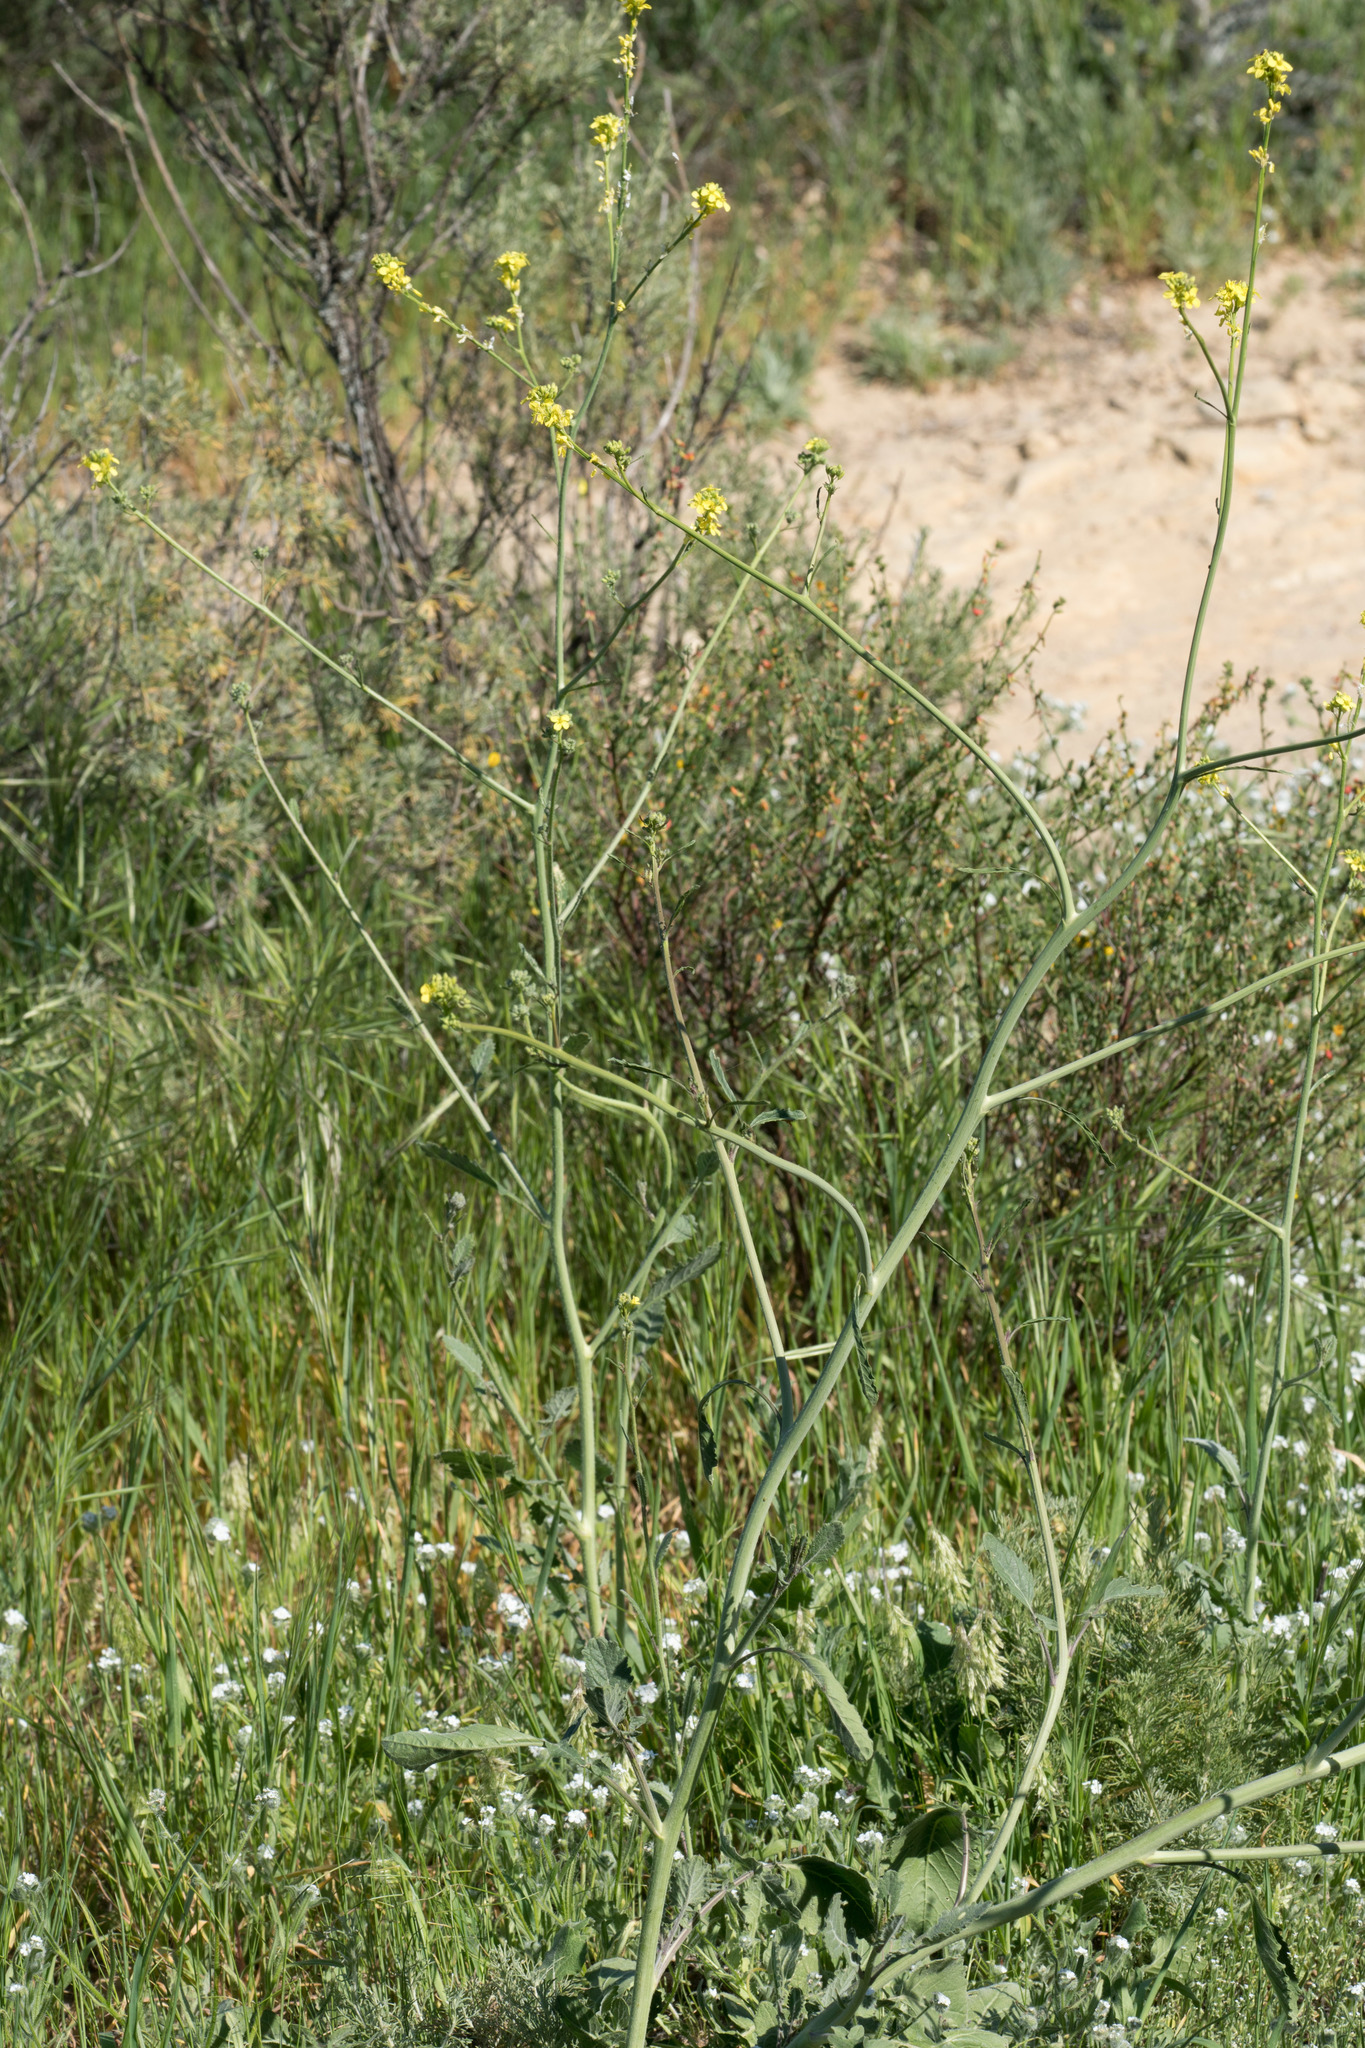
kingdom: Plantae
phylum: Tracheophyta
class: Magnoliopsida
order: Brassicales
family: Brassicaceae
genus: Hirschfeldia
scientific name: Hirschfeldia incana
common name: Hoary mustard
